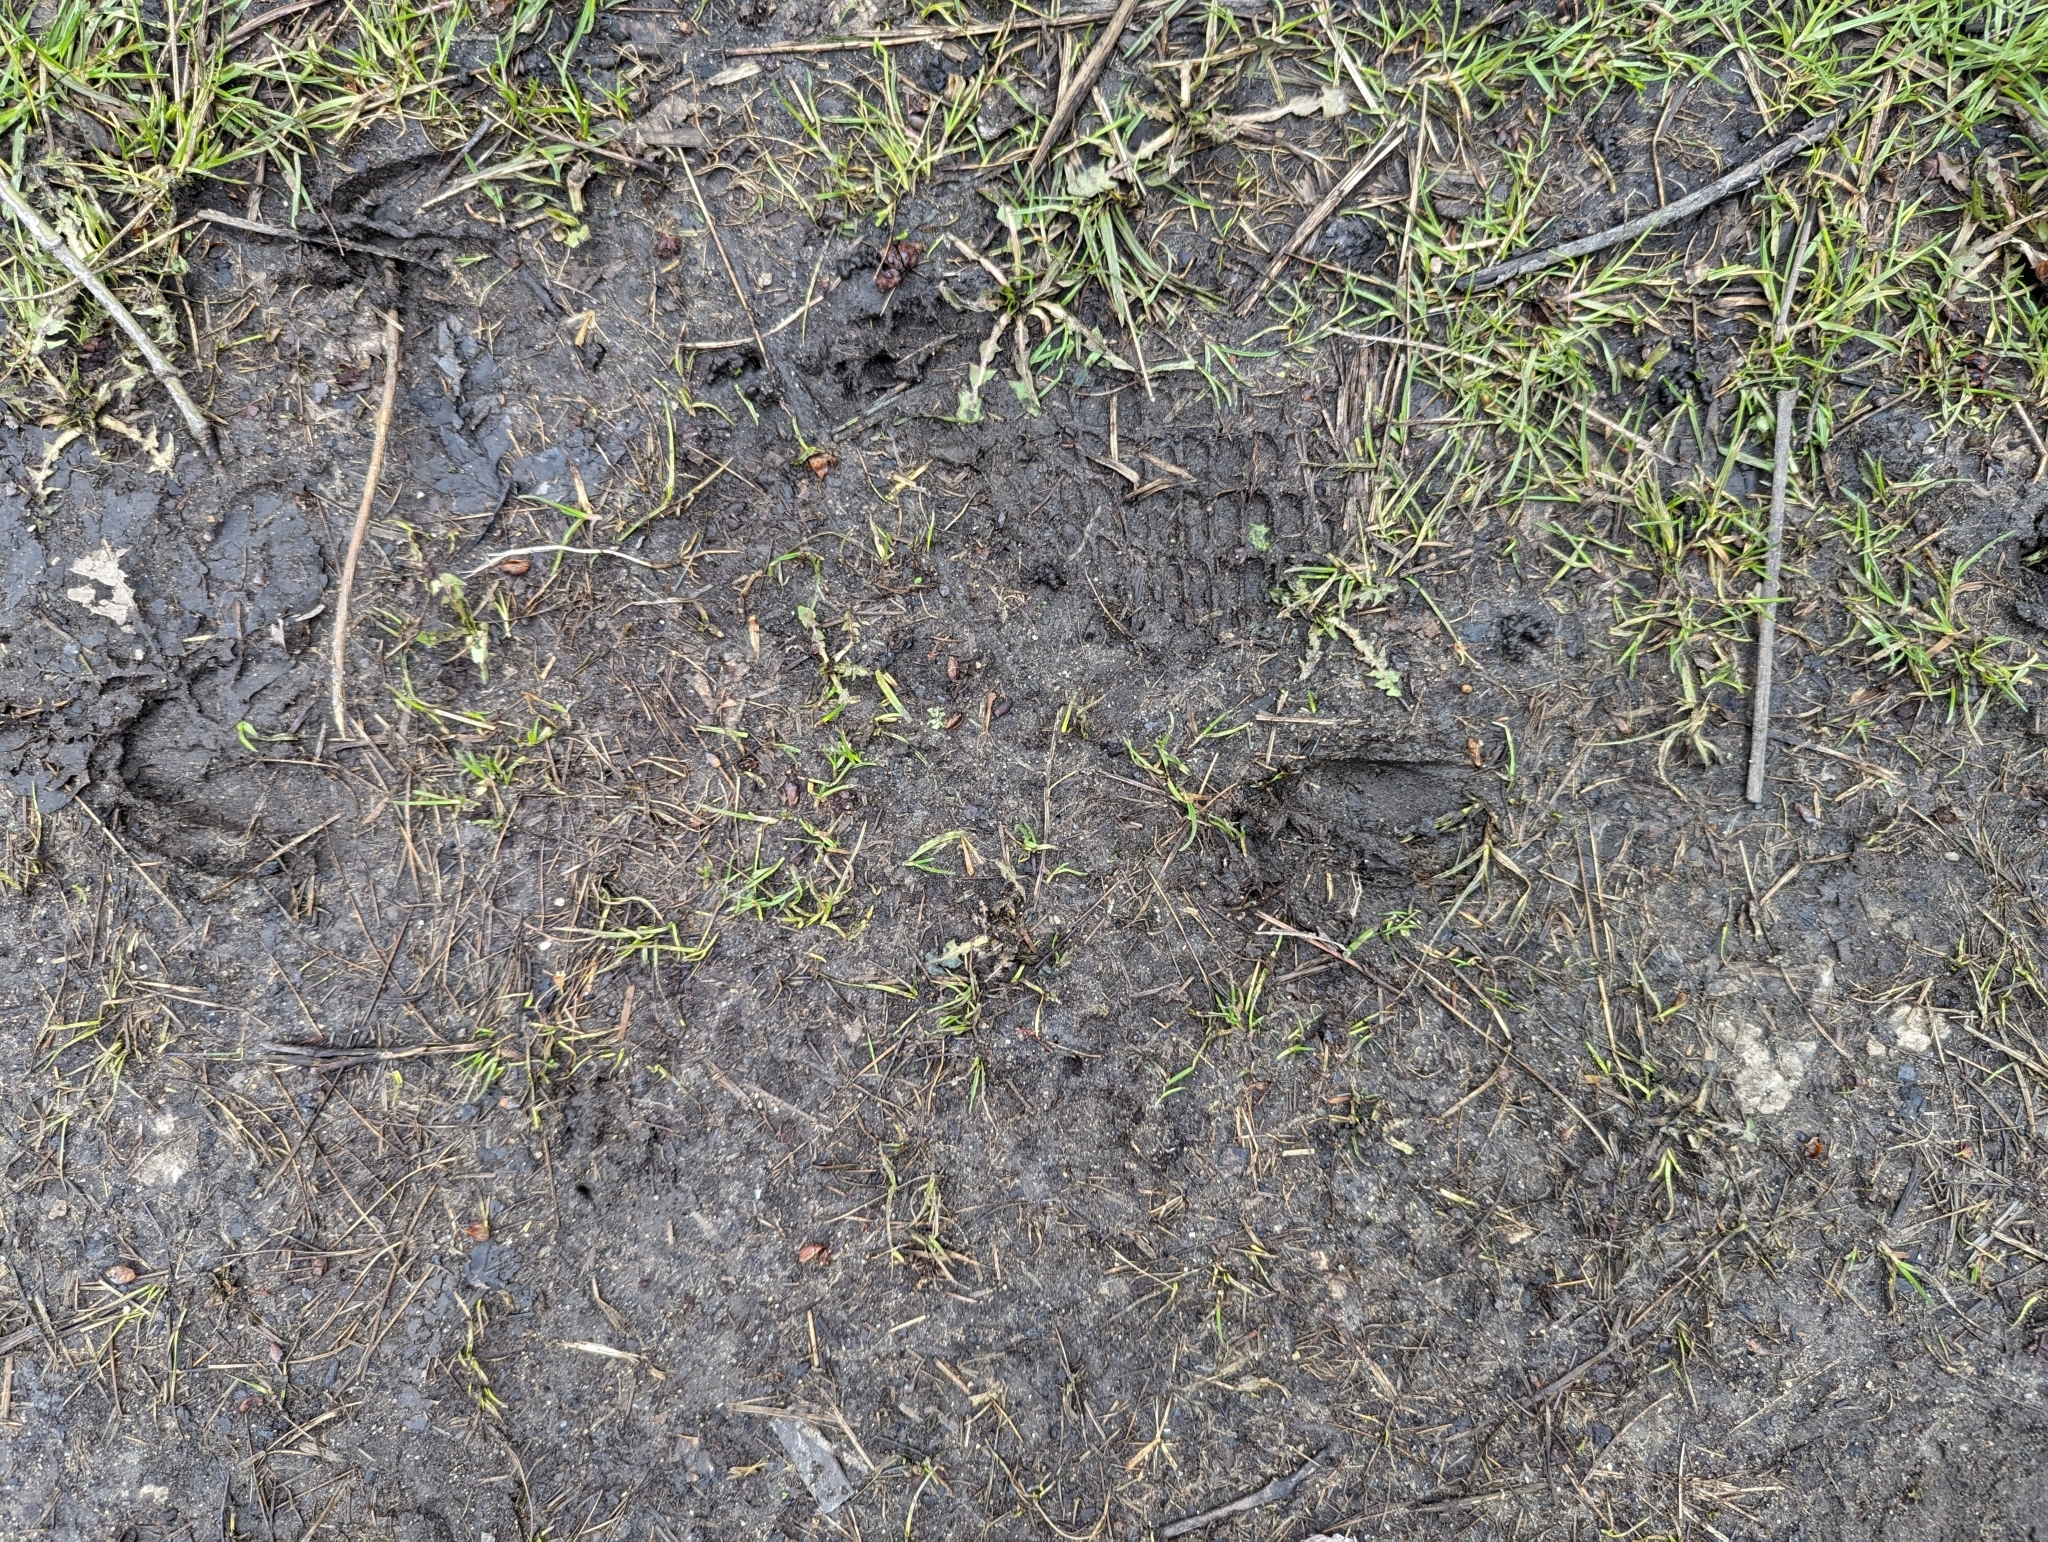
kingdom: Animalia
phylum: Chordata
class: Mammalia
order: Artiodactyla
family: Cervidae
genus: Odocoileus
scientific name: Odocoileus virginianus
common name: White-tailed deer
